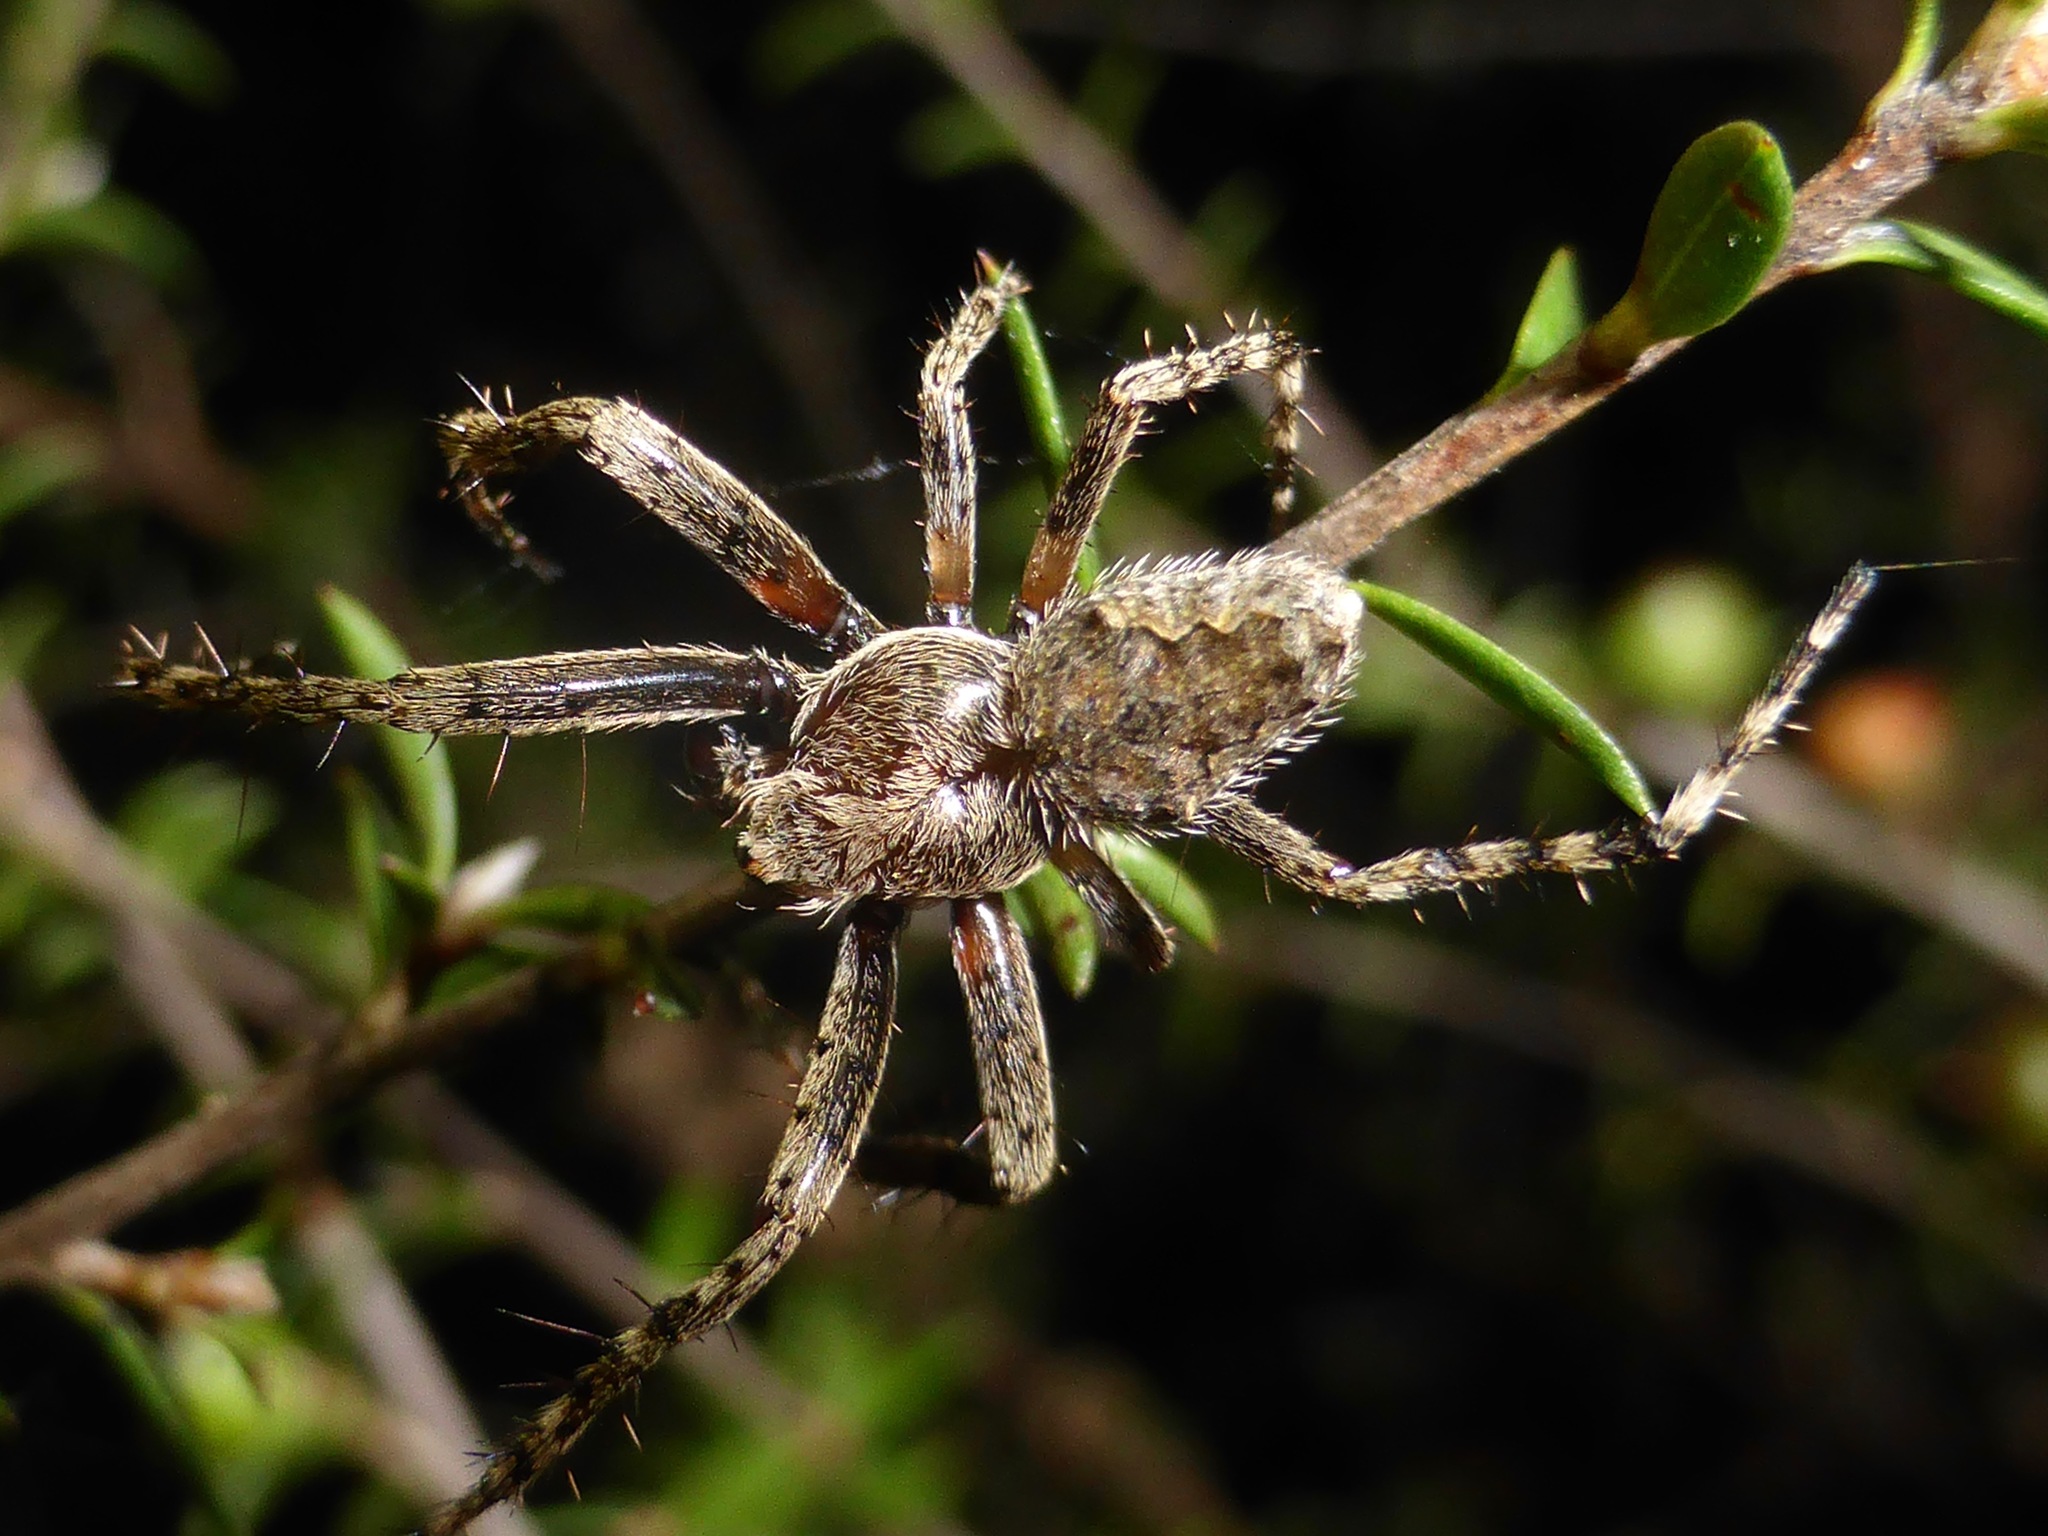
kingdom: Animalia
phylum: Arthropoda
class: Arachnida
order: Araneae
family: Araneidae
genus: Eriophora
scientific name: Eriophora pustulosa
